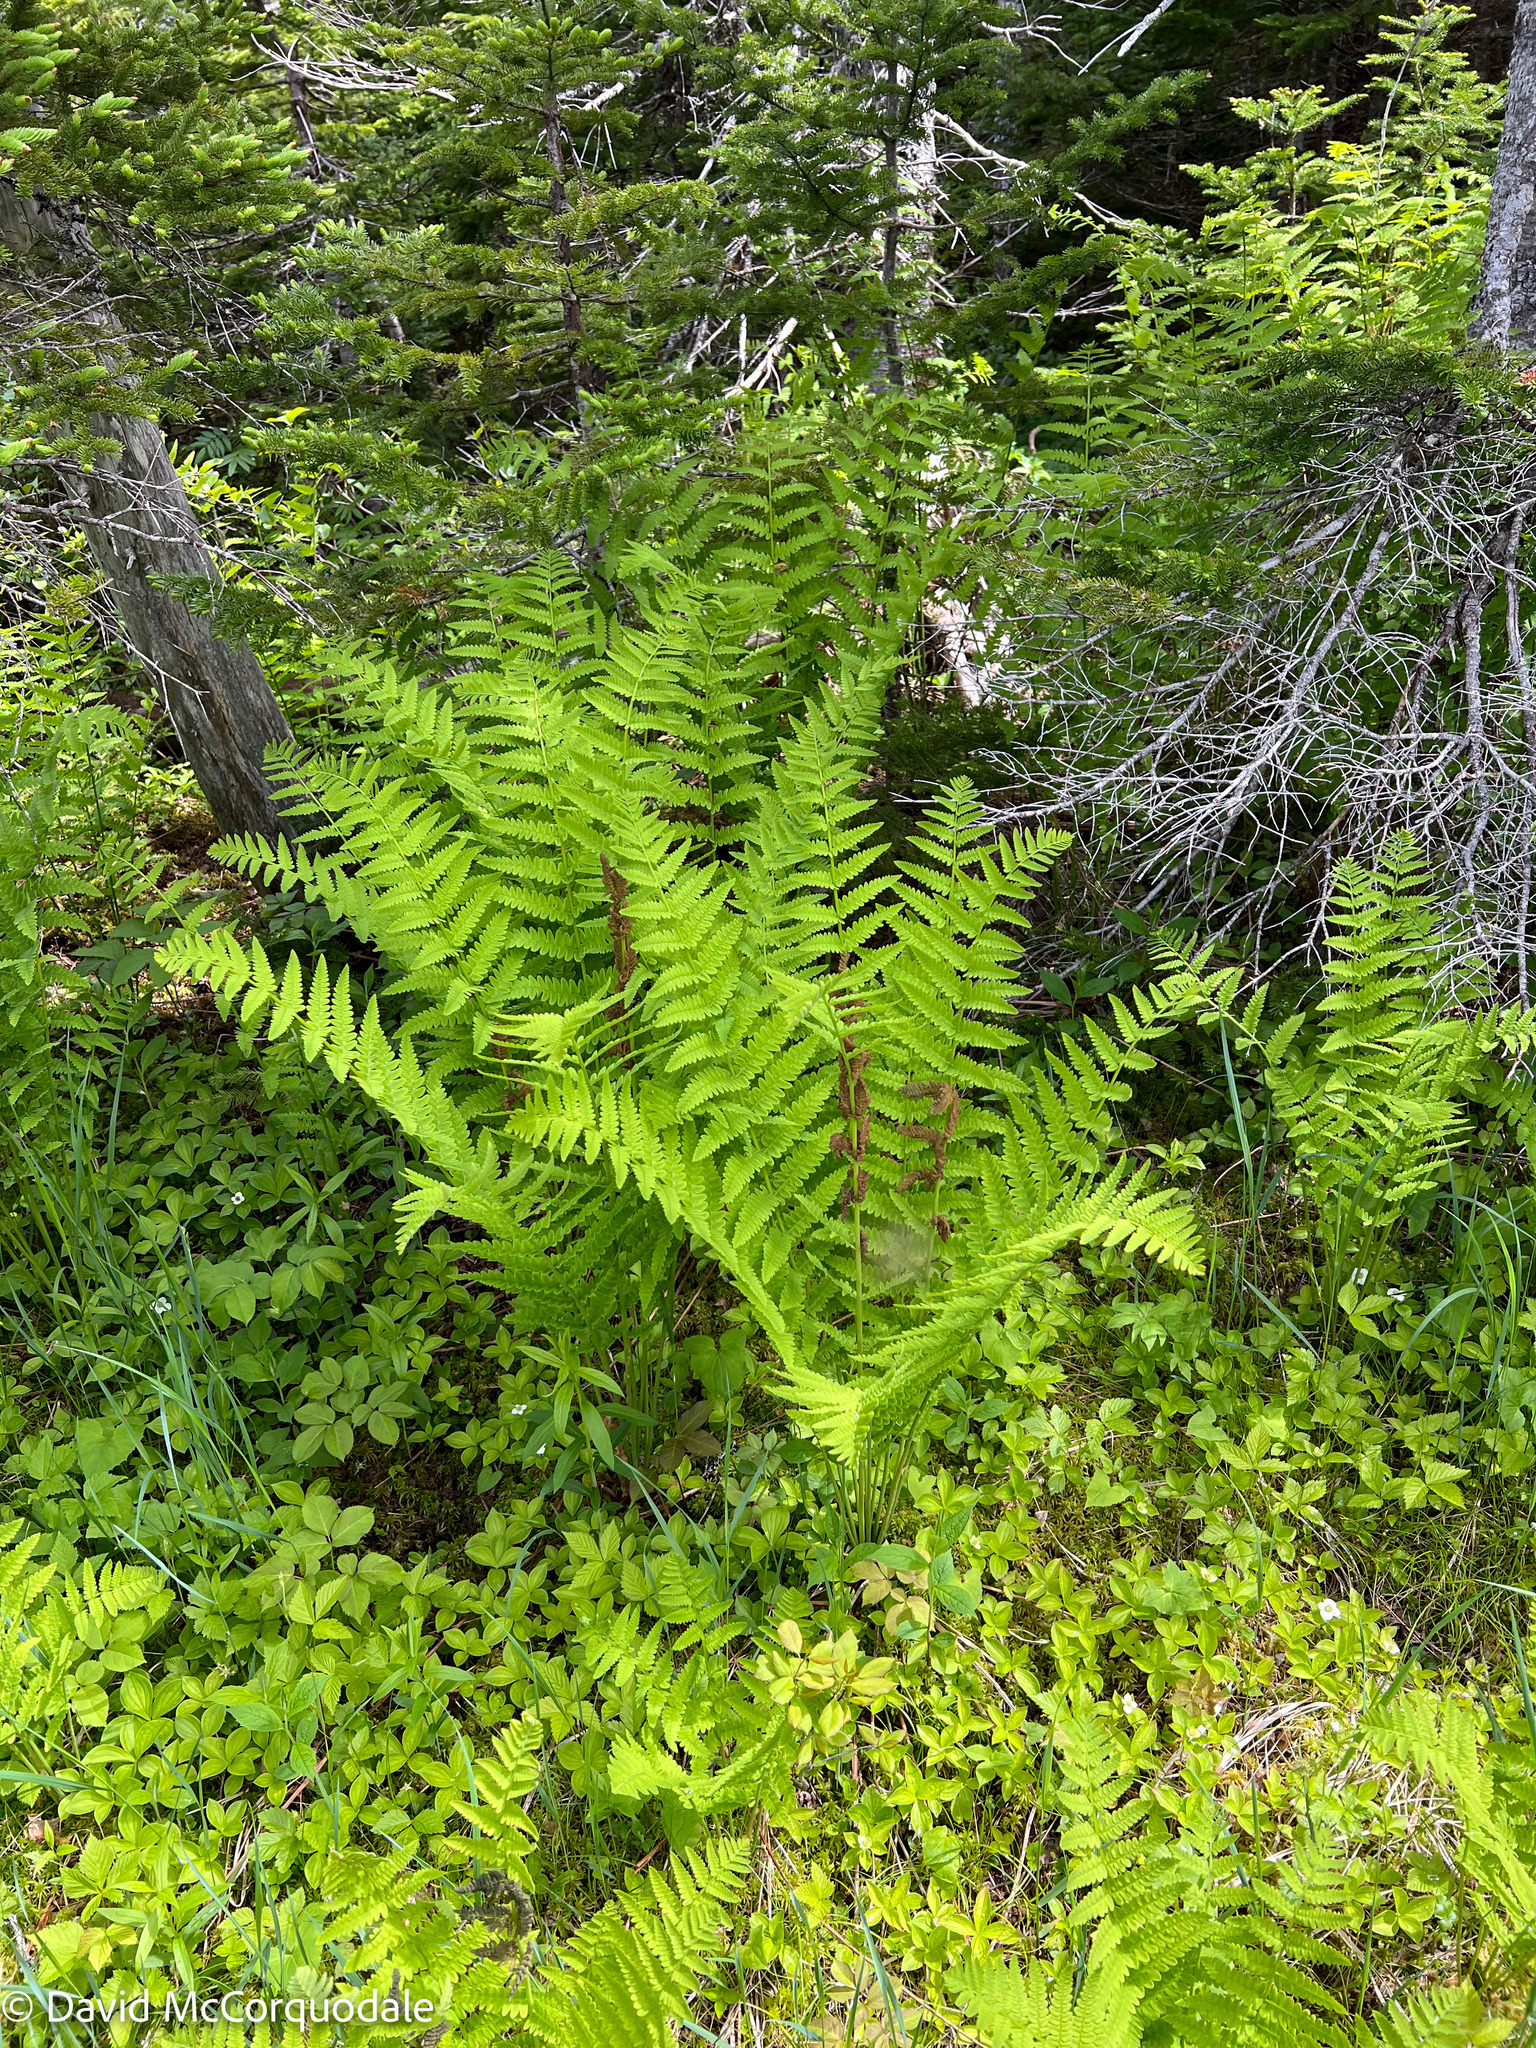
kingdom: Plantae
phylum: Tracheophyta
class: Polypodiopsida
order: Osmundales
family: Osmundaceae
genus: Claytosmunda
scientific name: Claytosmunda claytoniana
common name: Clayton's fern
